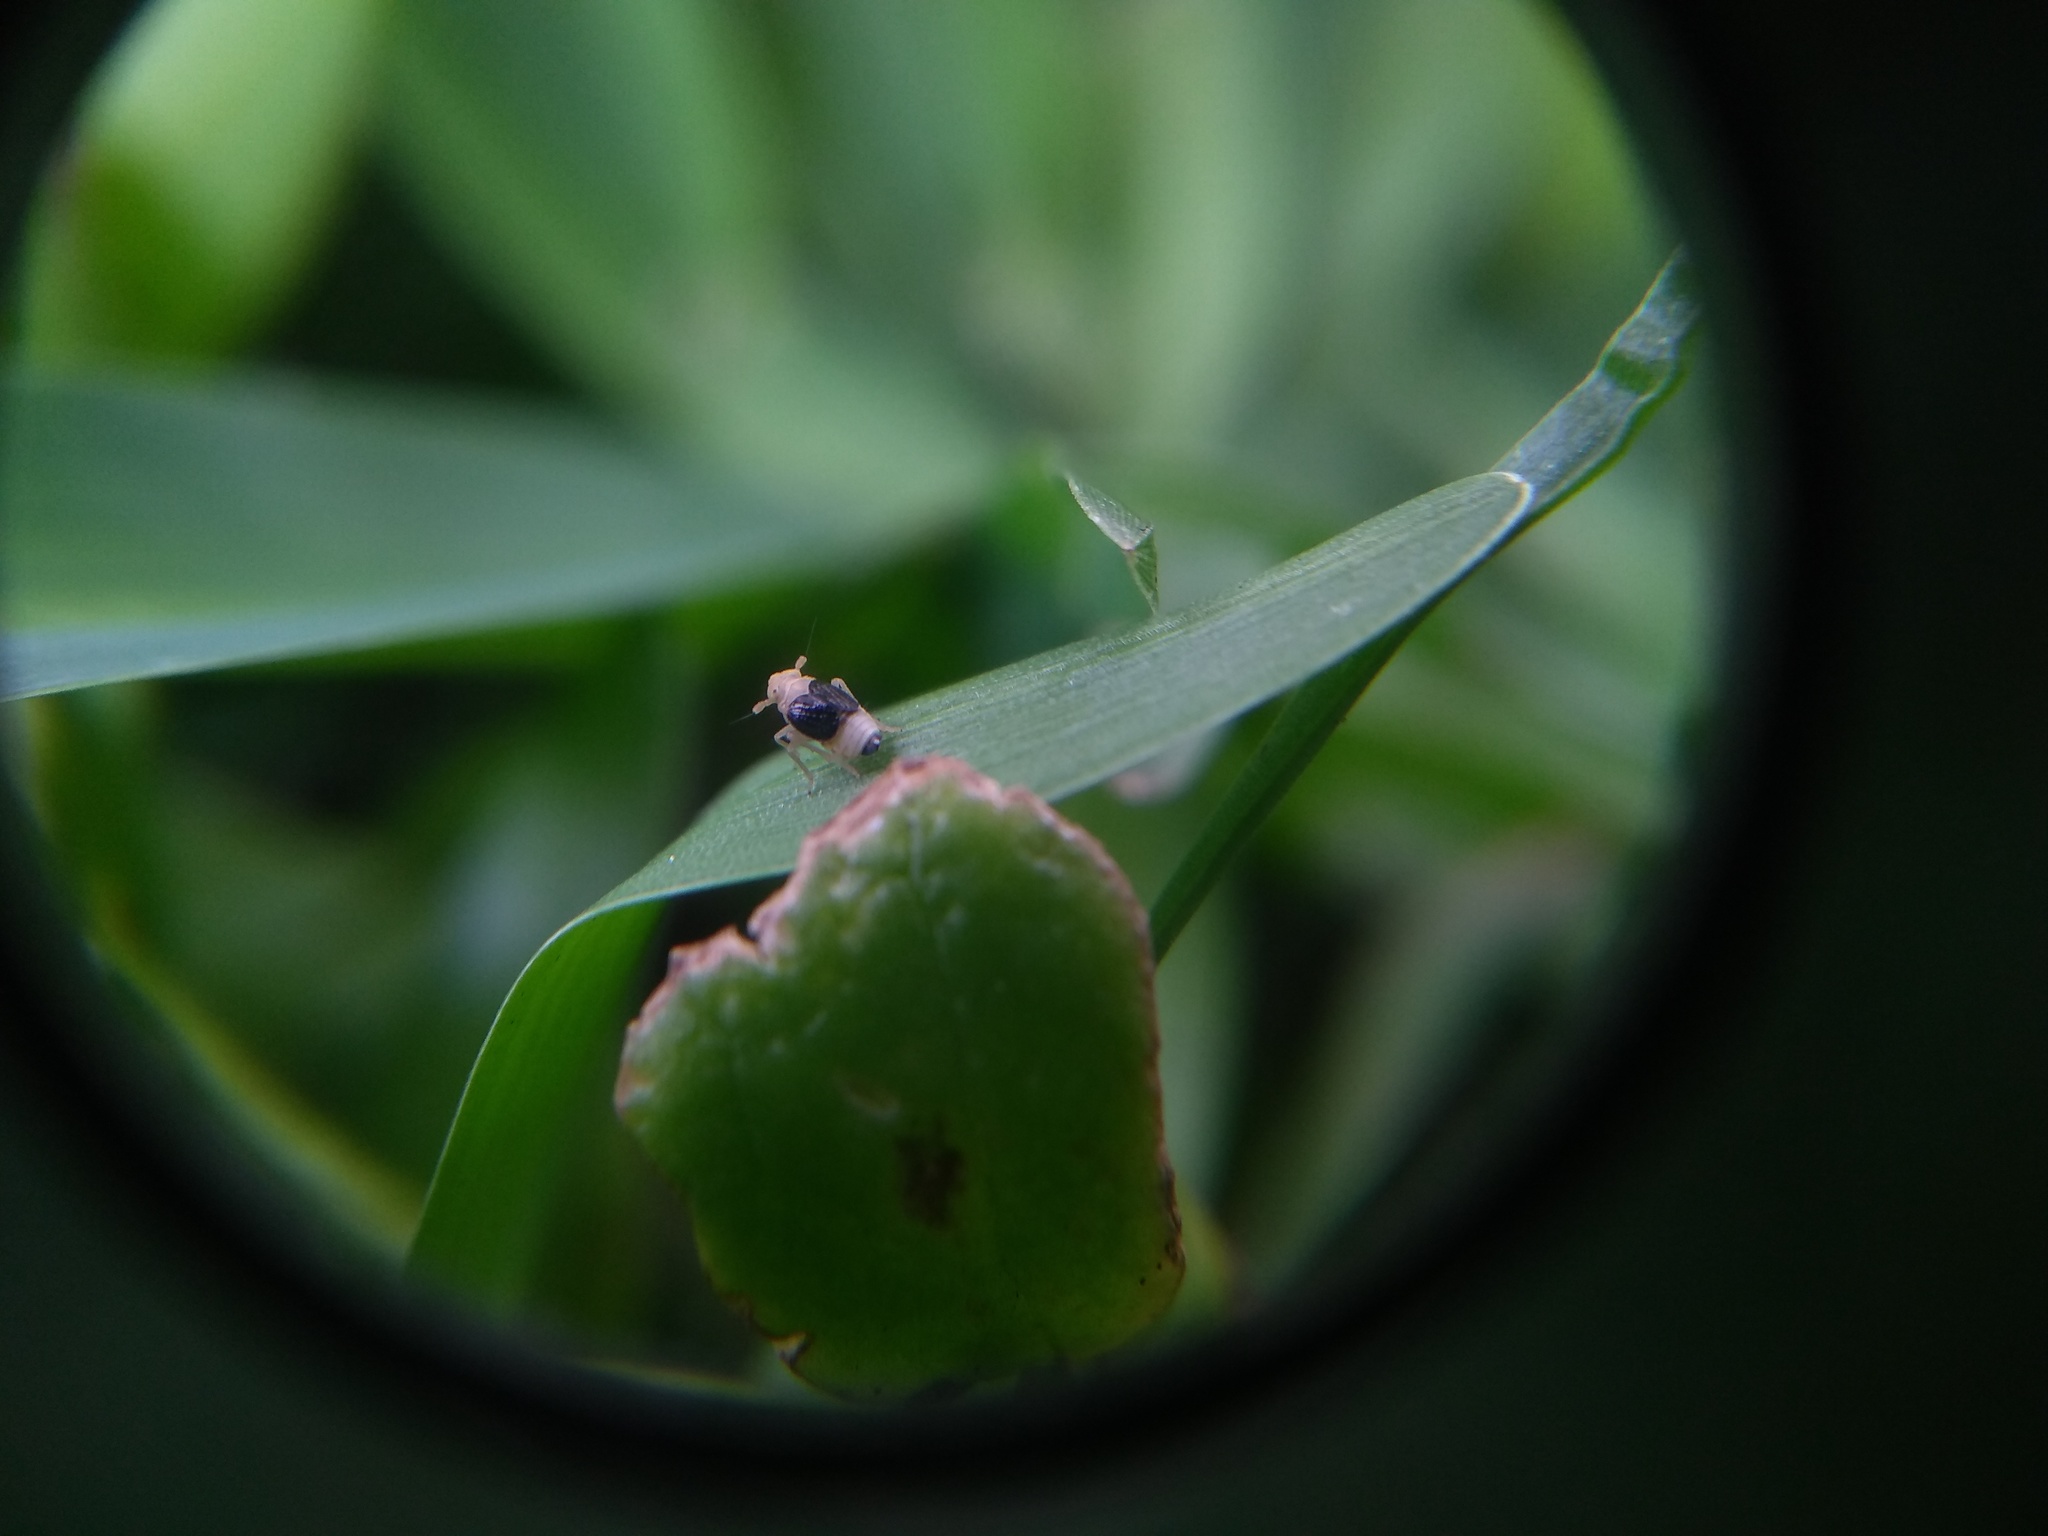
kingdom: Animalia
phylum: Arthropoda
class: Insecta
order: Hemiptera
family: Delphacidae
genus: Syndelphax
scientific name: Syndelphax pseudoseminiger
